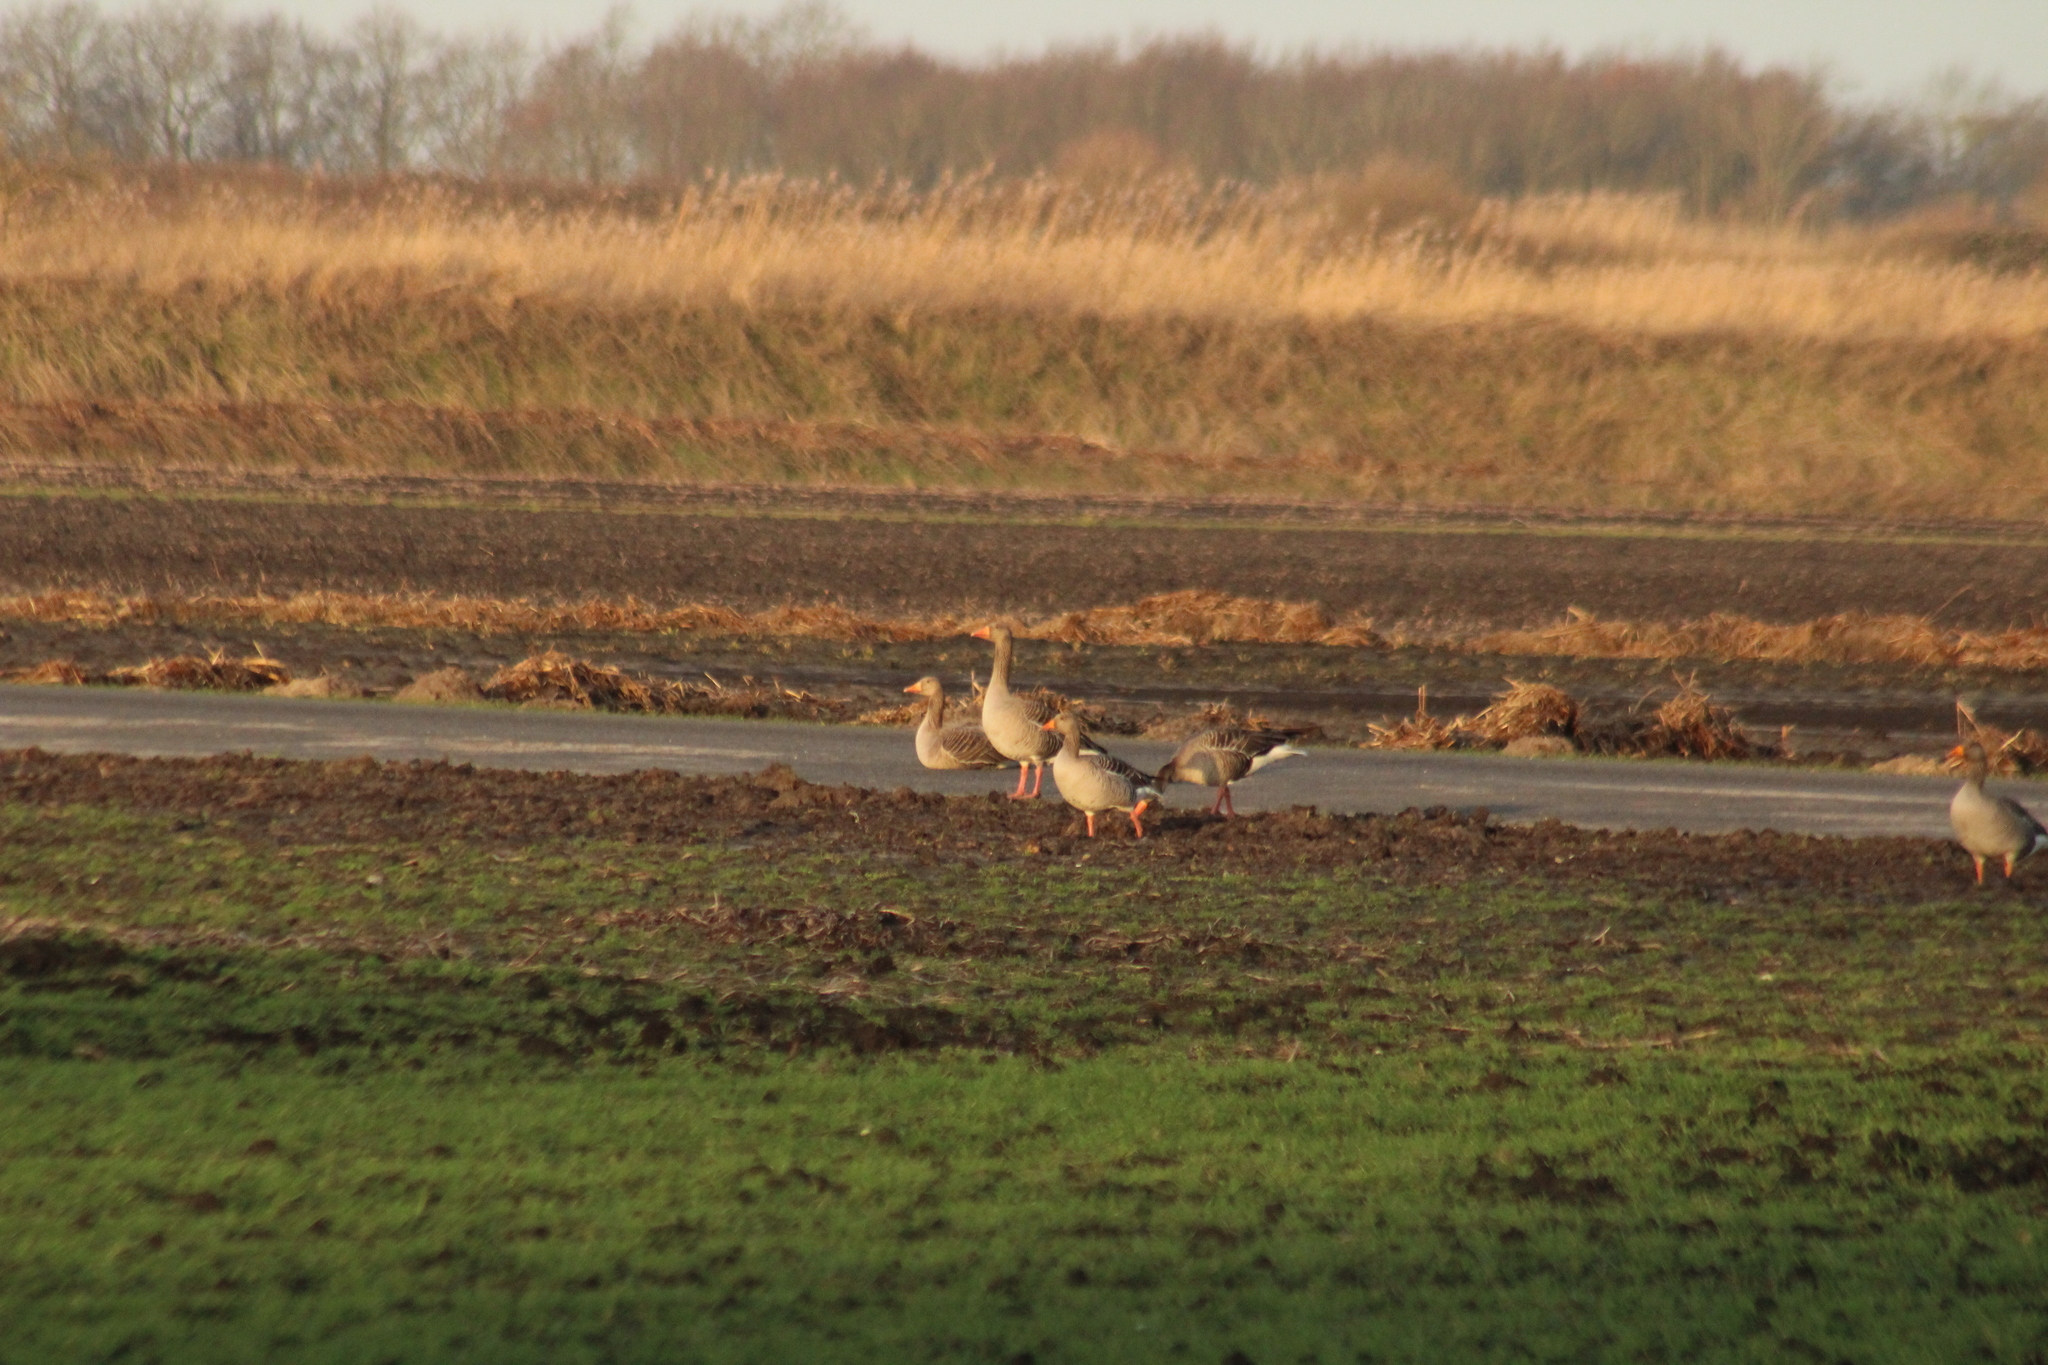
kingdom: Animalia
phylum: Chordata
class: Aves
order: Anseriformes
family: Anatidae
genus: Anser
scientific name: Anser anser
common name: Greylag goose
